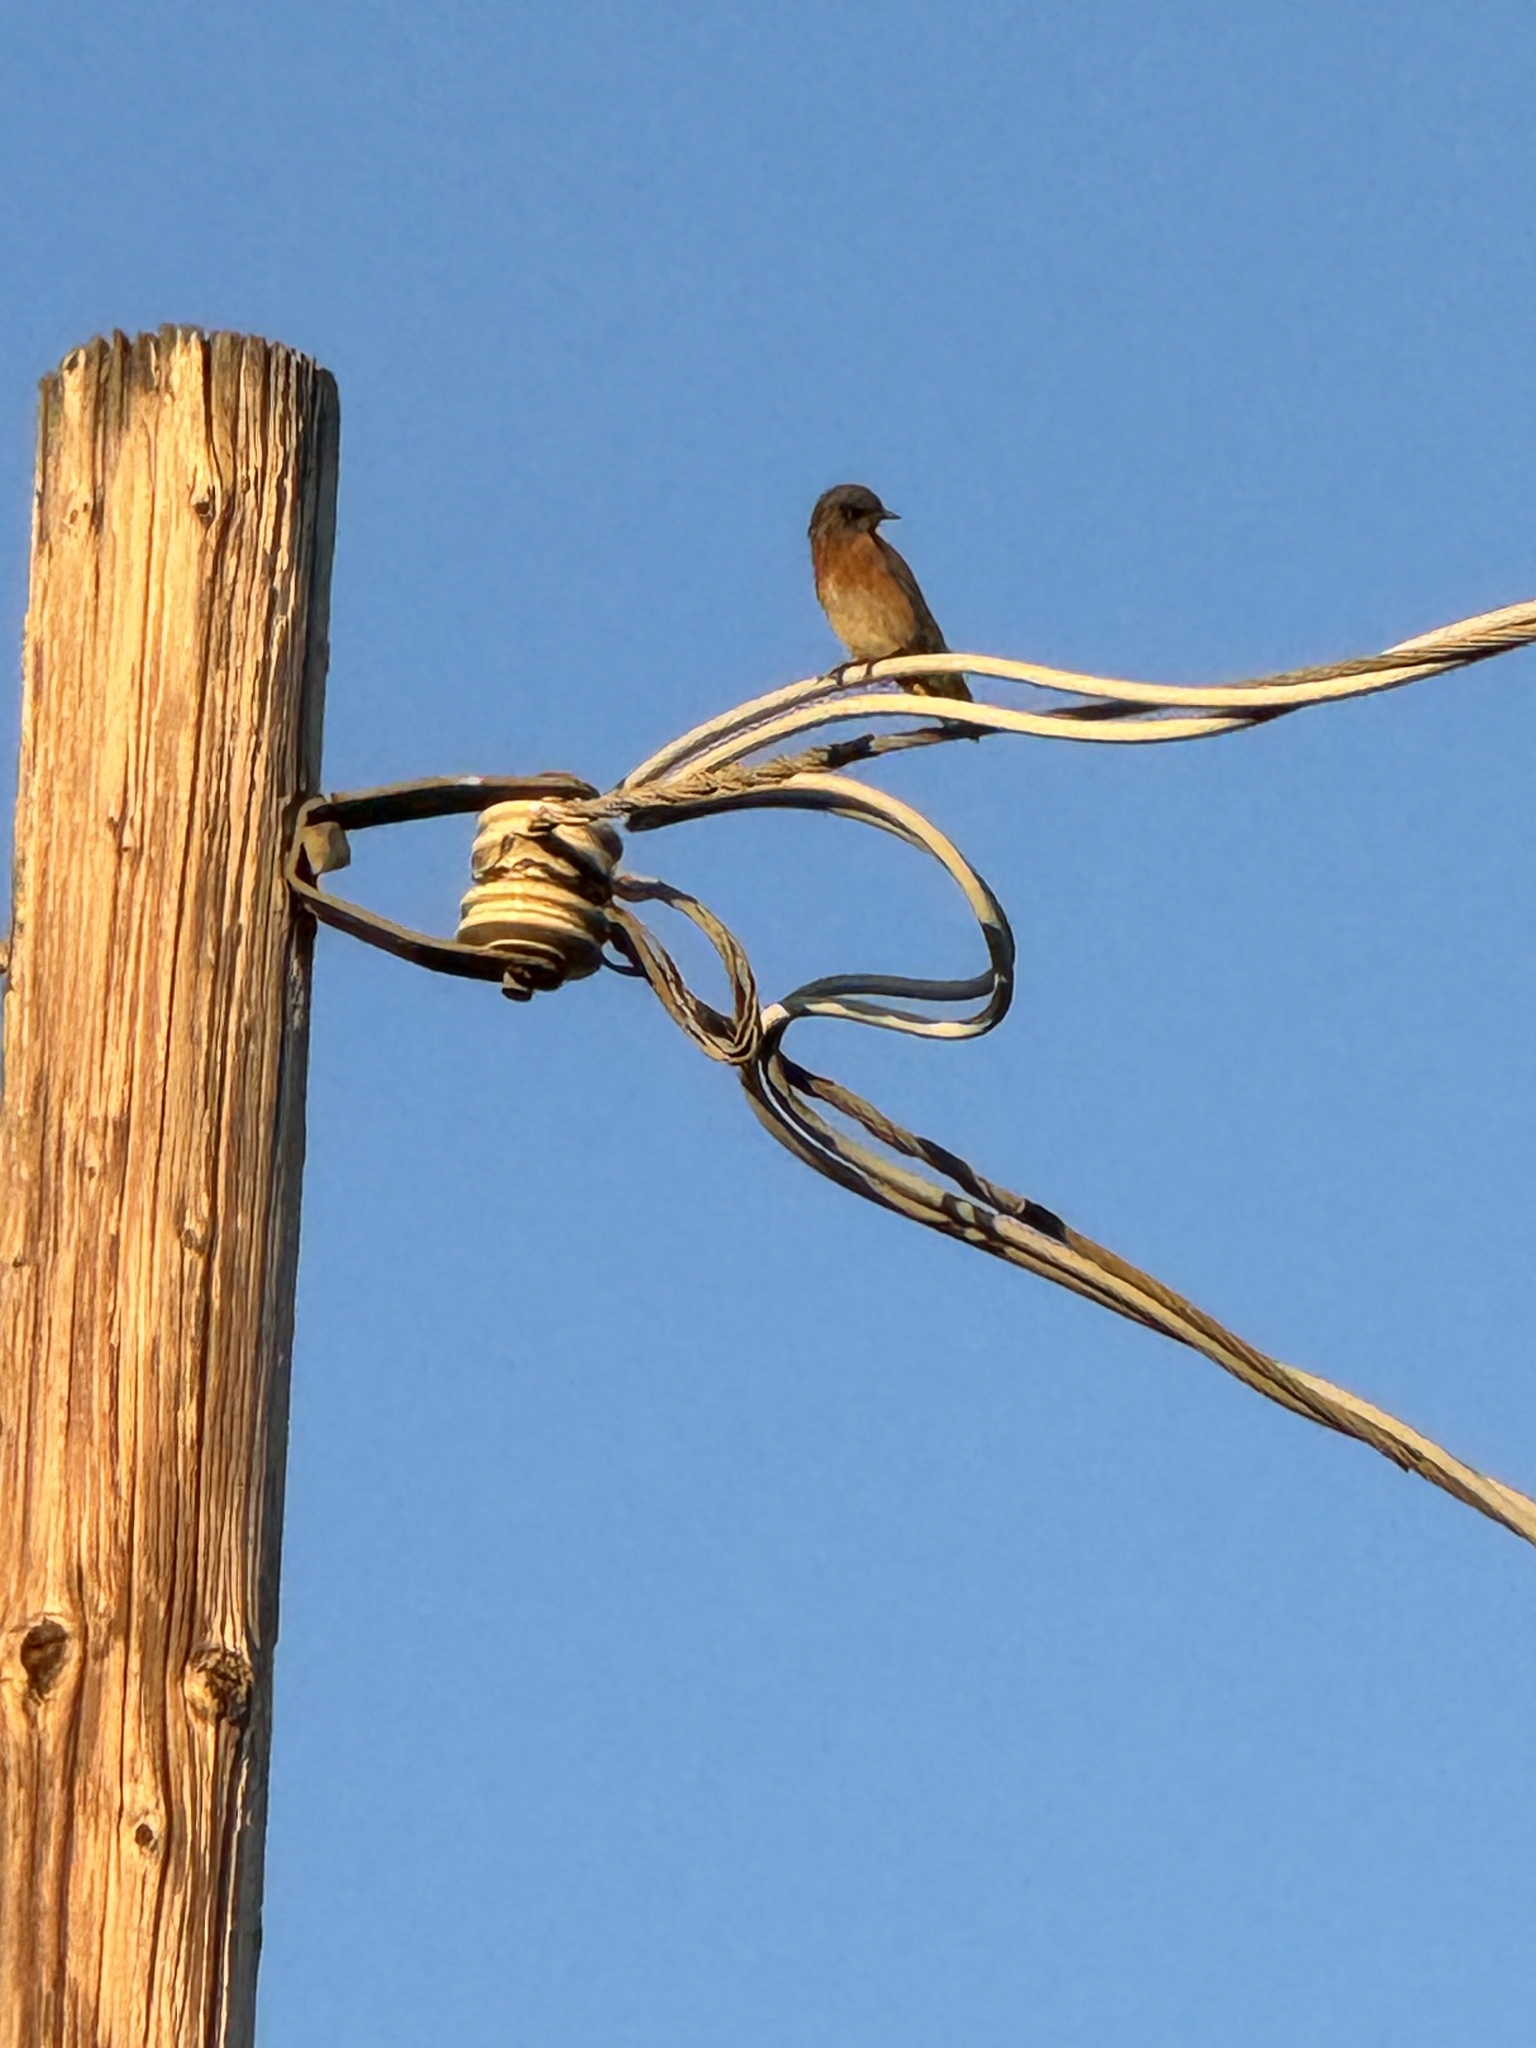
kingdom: Animalia
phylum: Chordata
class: Aves
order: Passeriformes
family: Turdidae
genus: Sialia
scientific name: Sialia mexicana
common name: Western bluebird
